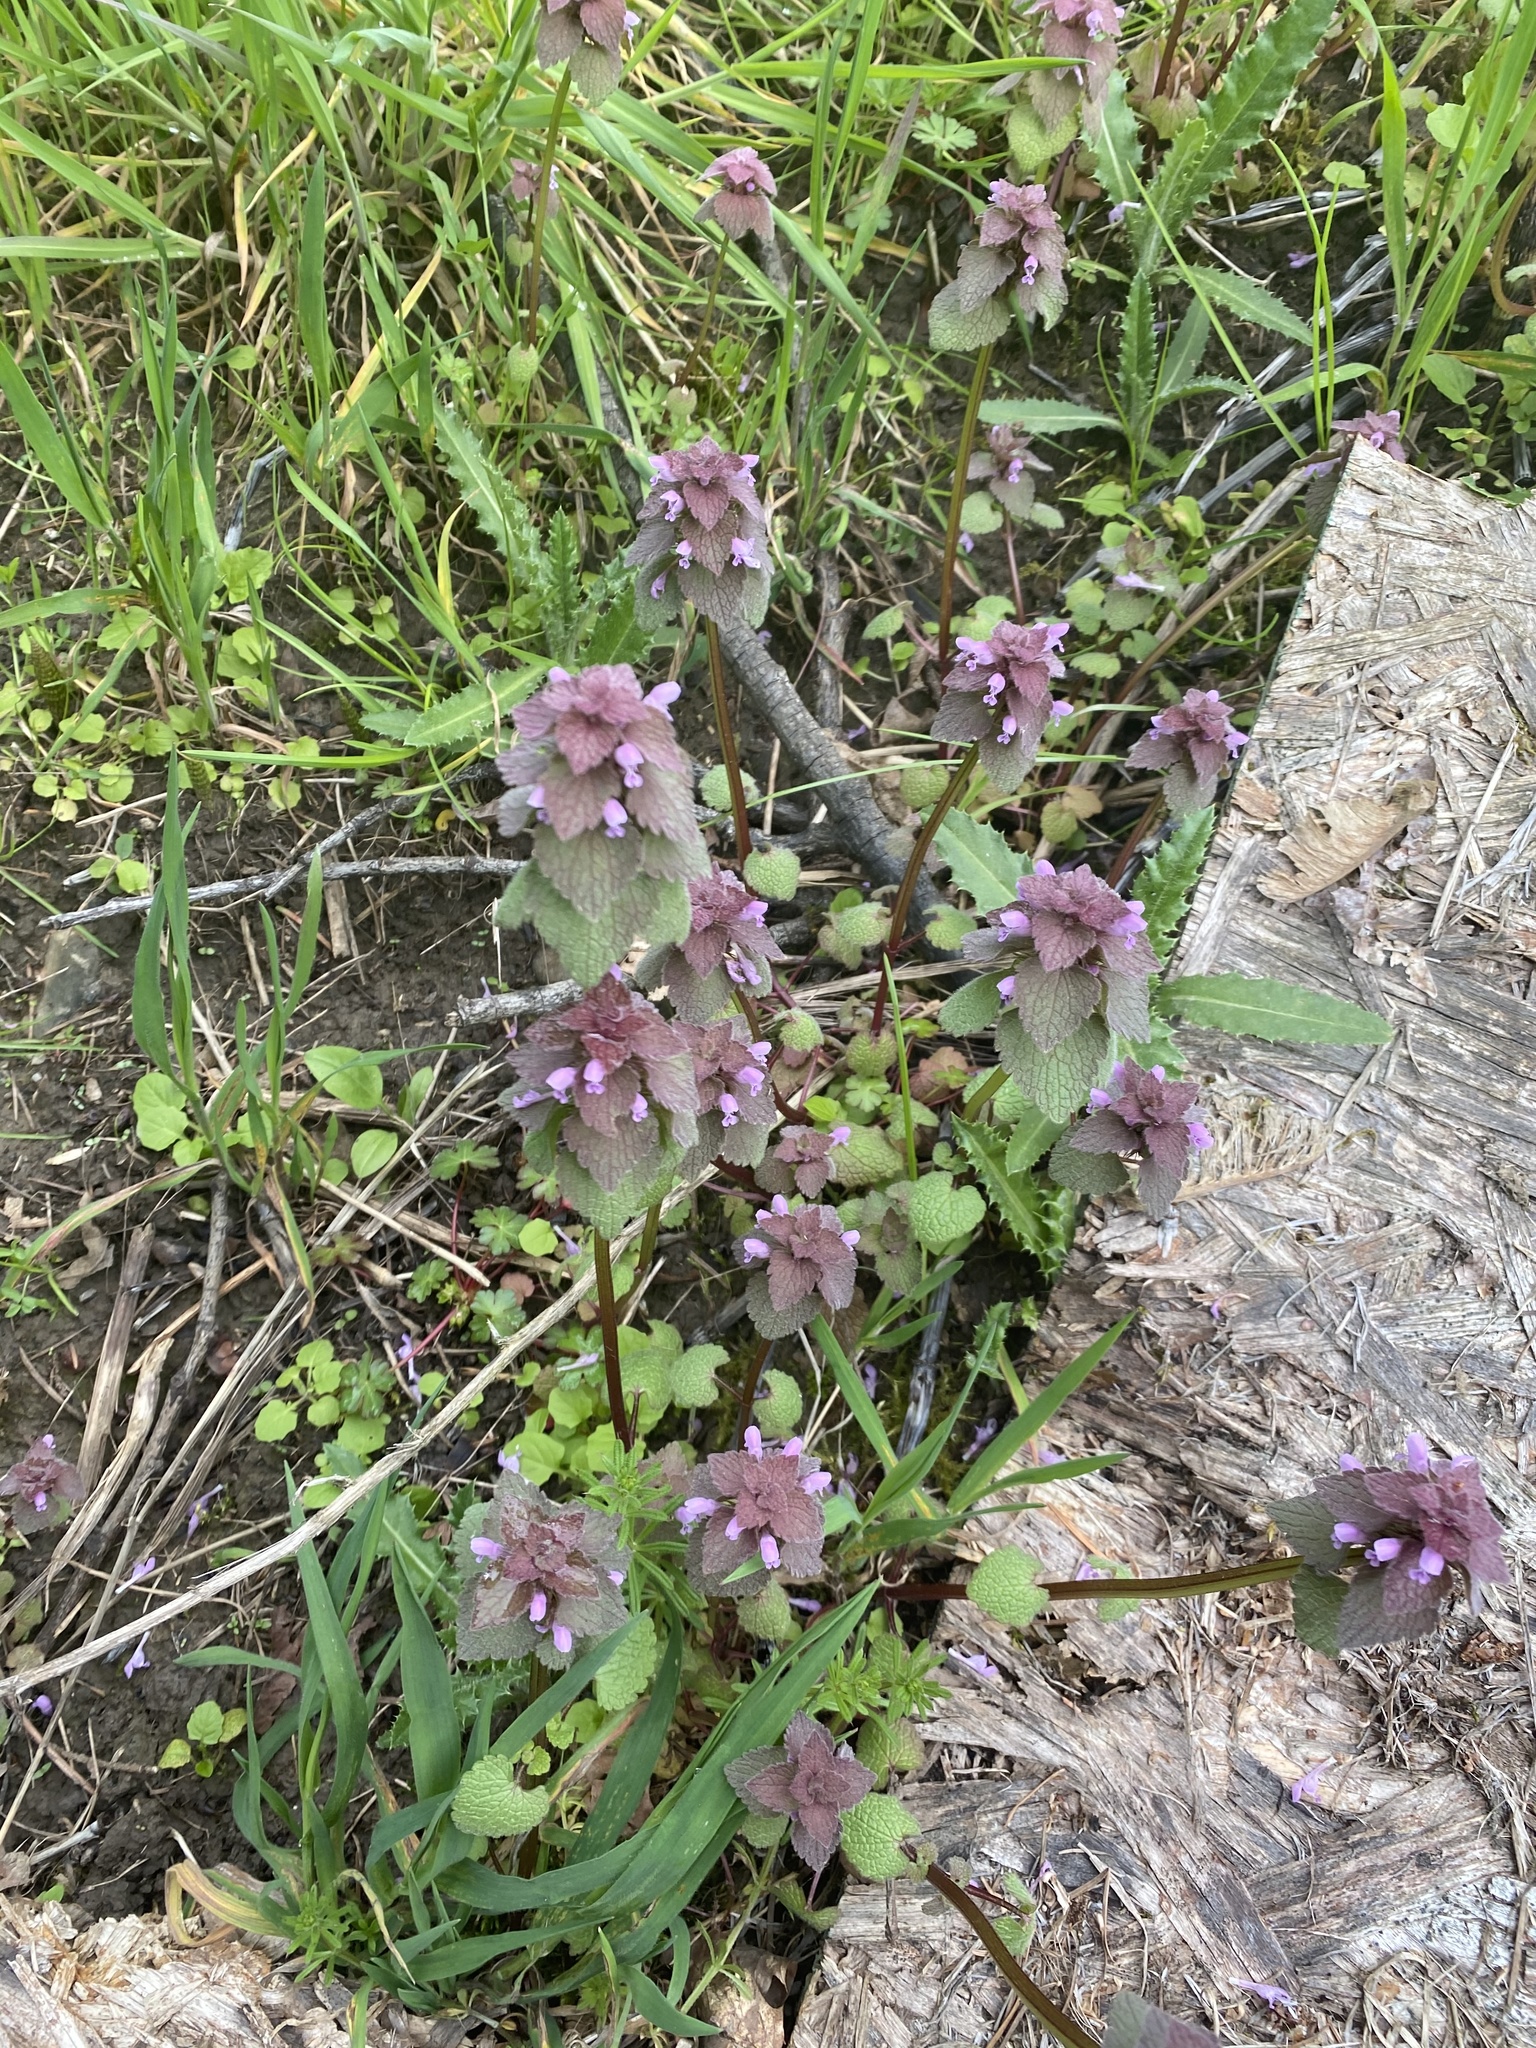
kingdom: Plantae
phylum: Tracheophyta
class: Magnoliopsida
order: Lamiales
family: Lamiaceae
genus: Lamium
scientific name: Lamium purpureum
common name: Red dead-nettle
